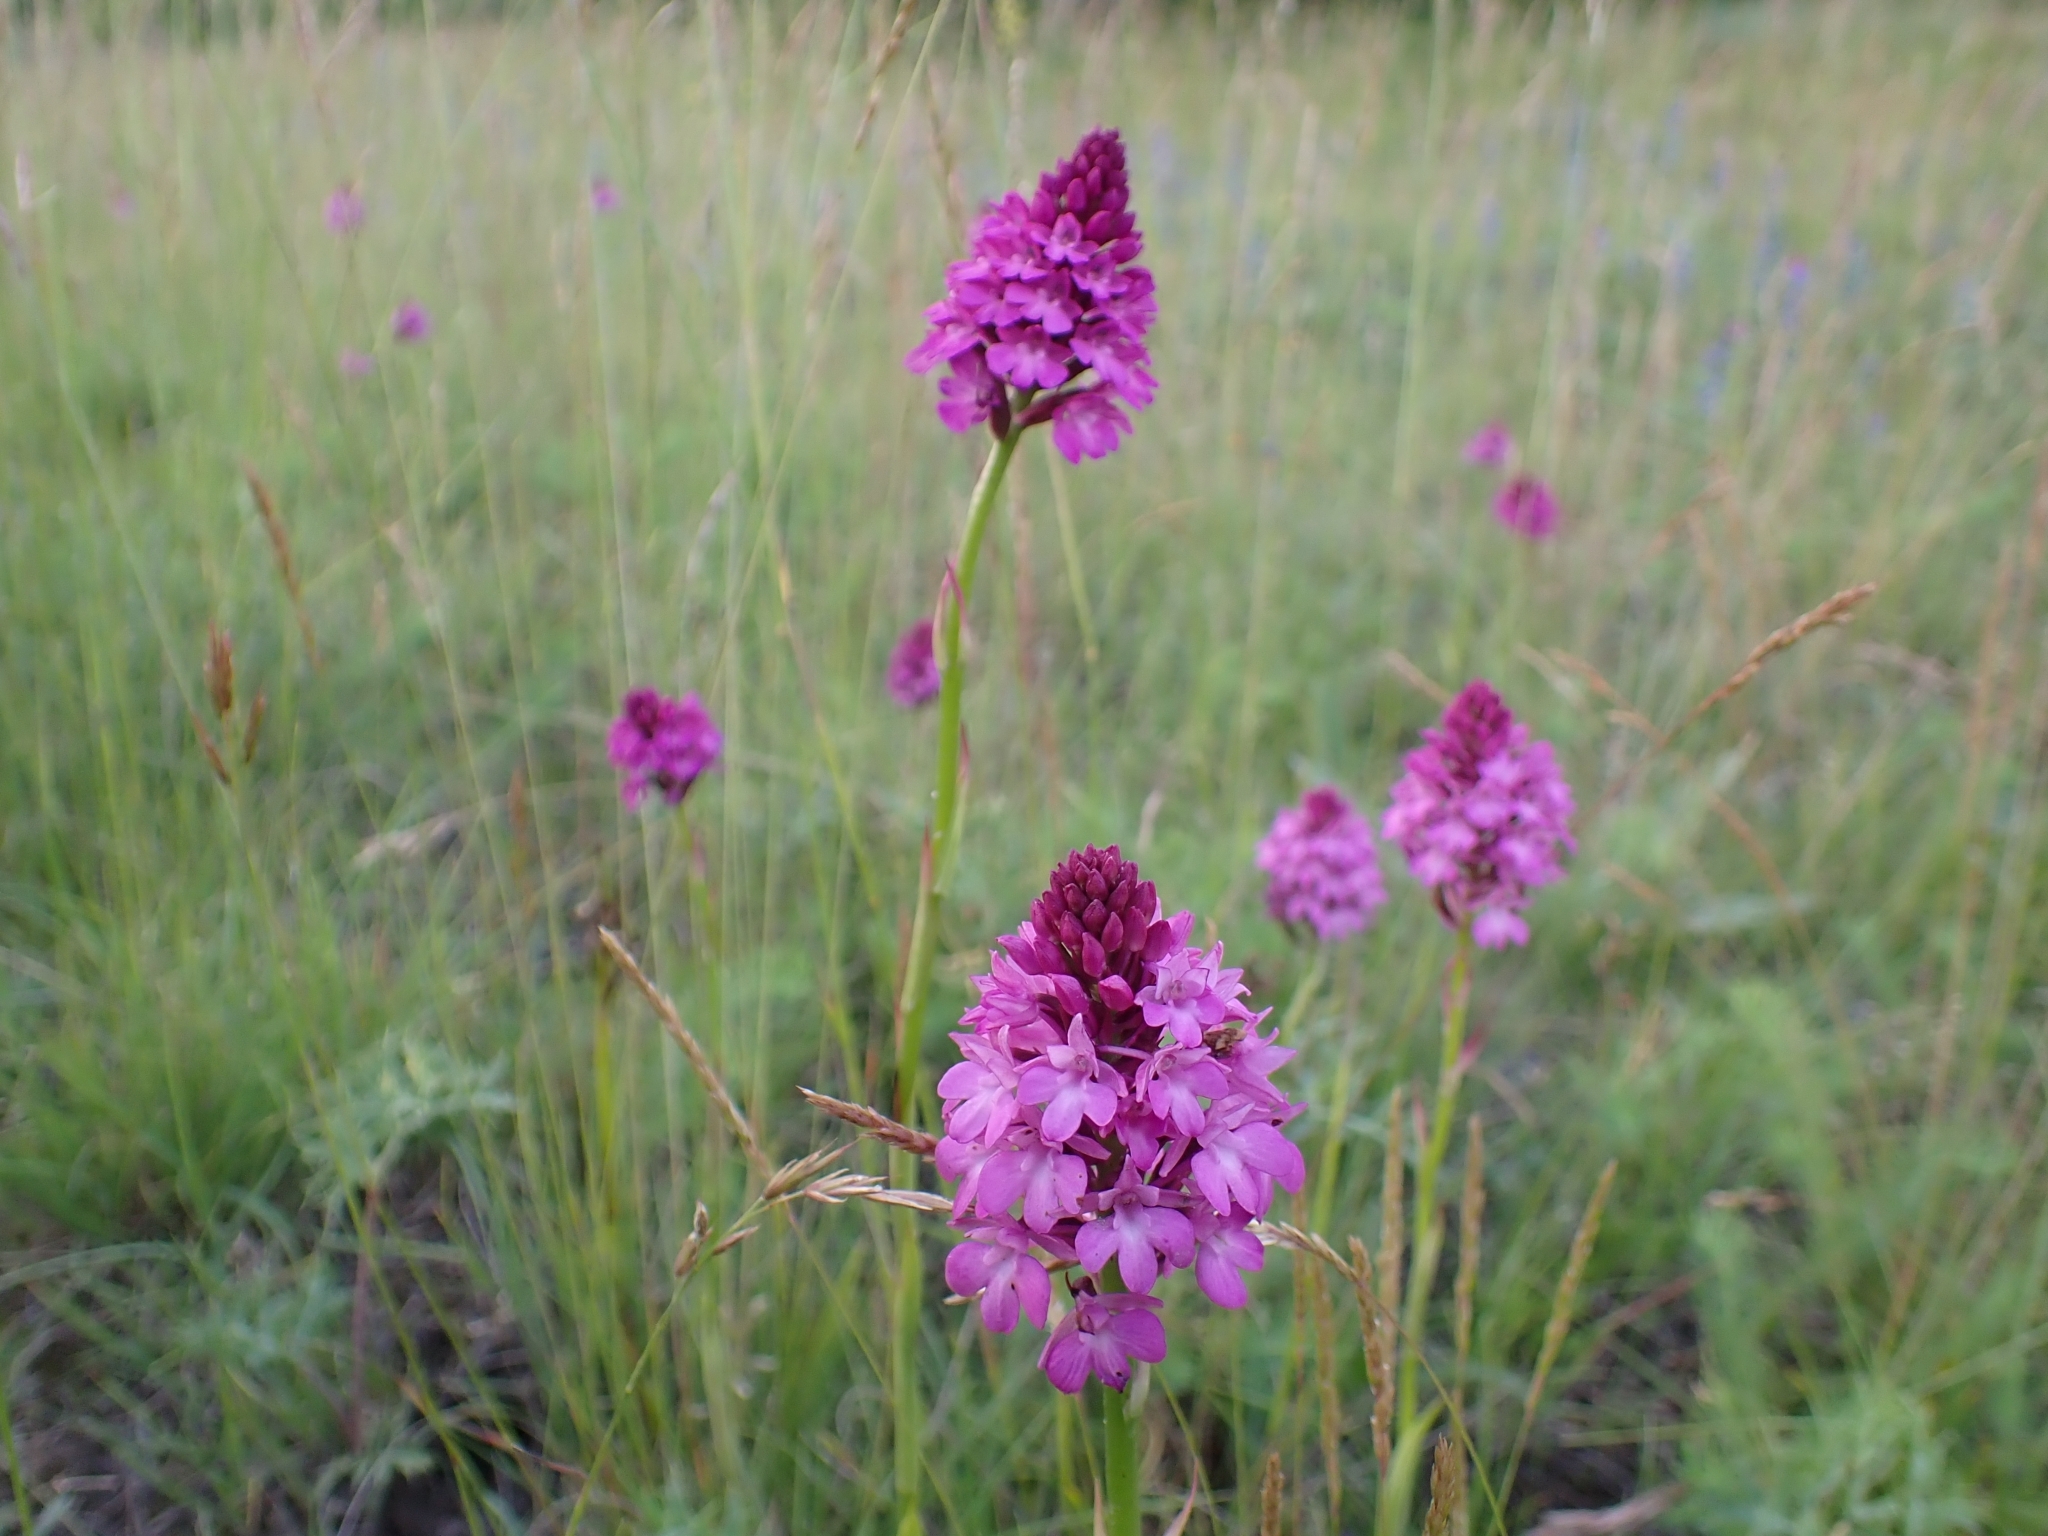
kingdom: Plantae
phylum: Tracheophyta
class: Liliopsida
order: Asparagales
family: Orchidaceae
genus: Anacamptis
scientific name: Anacamptis pyramidalis
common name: Pyramidal orchid
